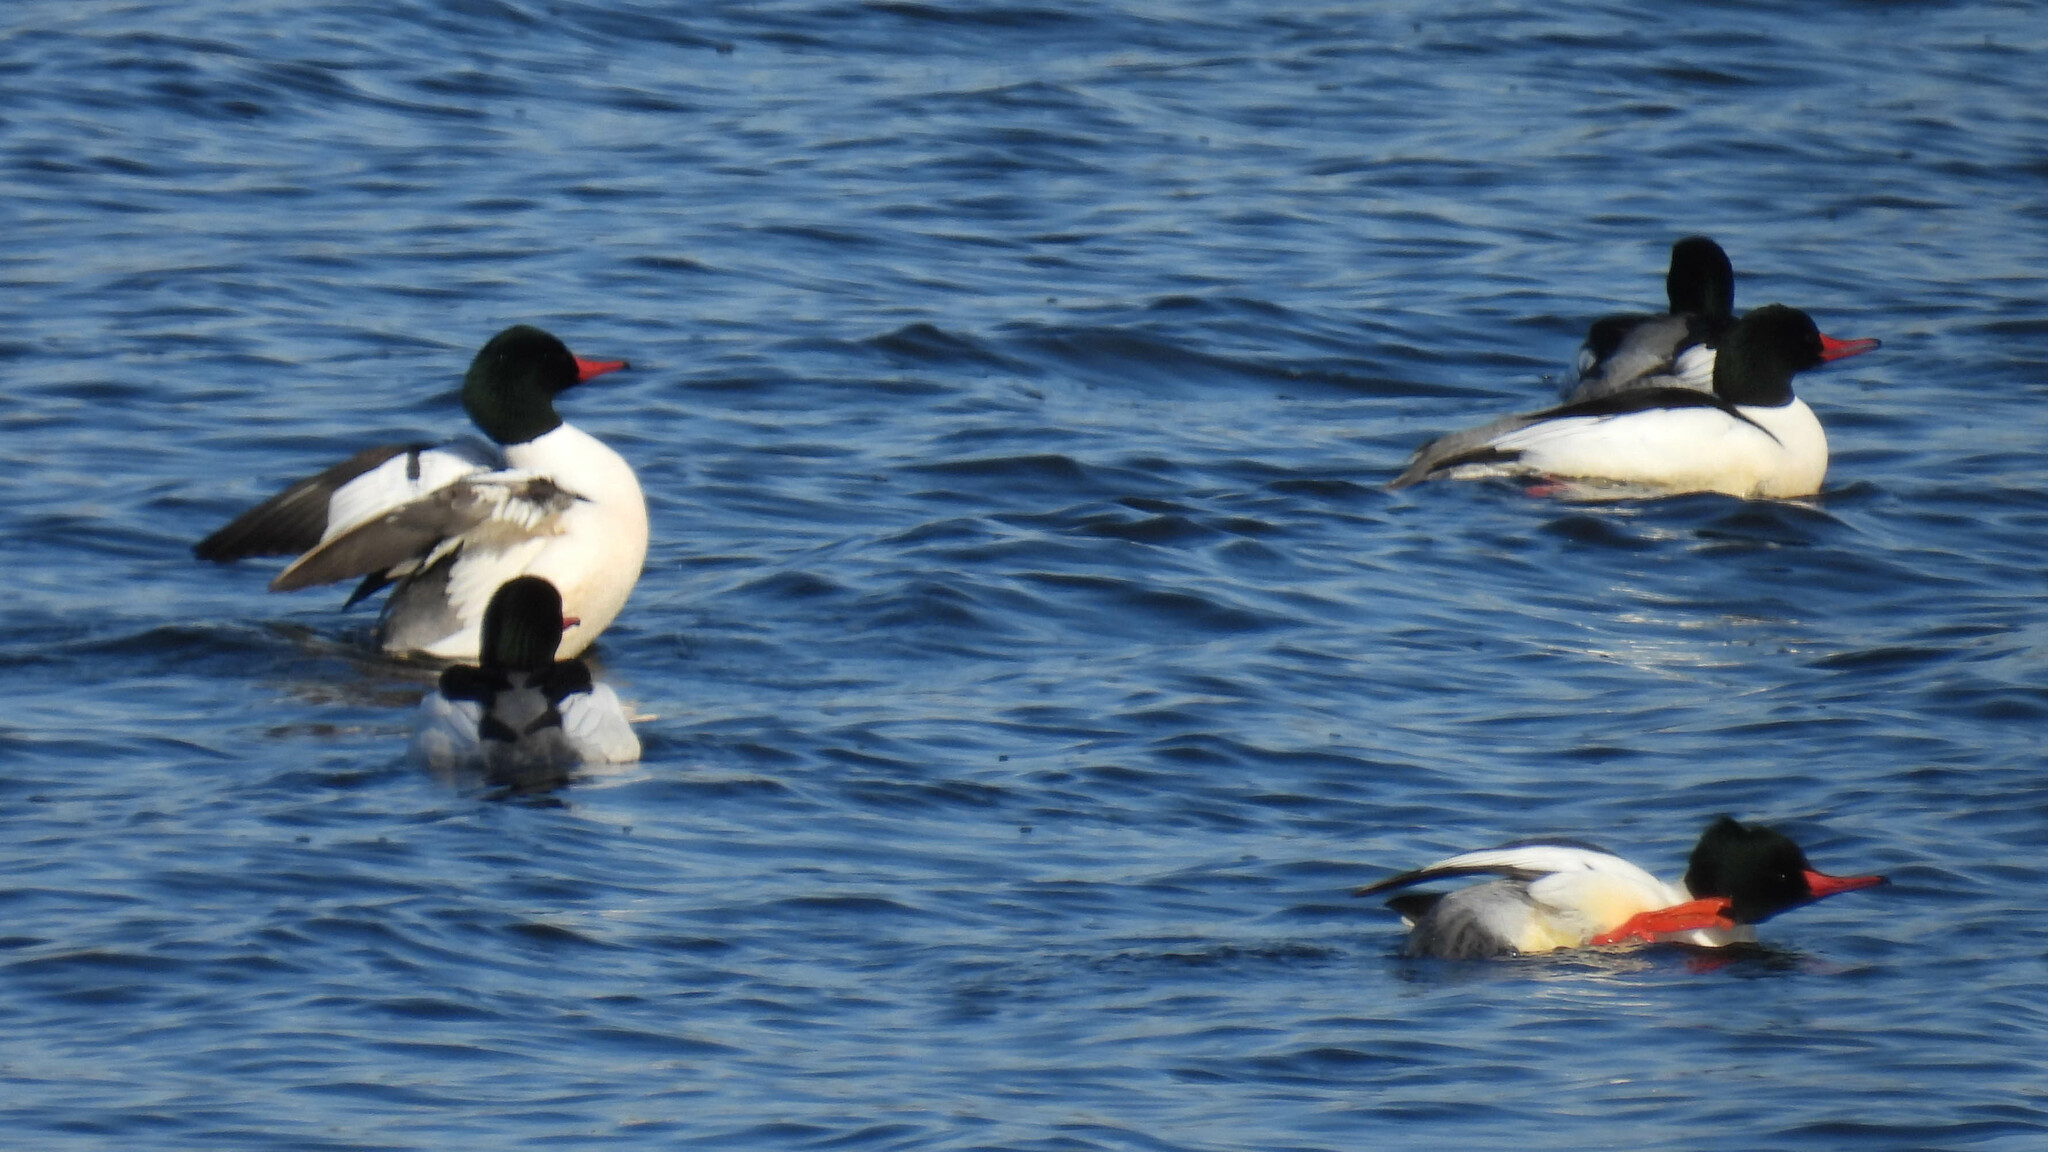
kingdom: Animalia
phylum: Chordata
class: Aves
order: Anseriformes
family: Anatidae
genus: Mergus
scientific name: Mergus merganser
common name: Common merganser
